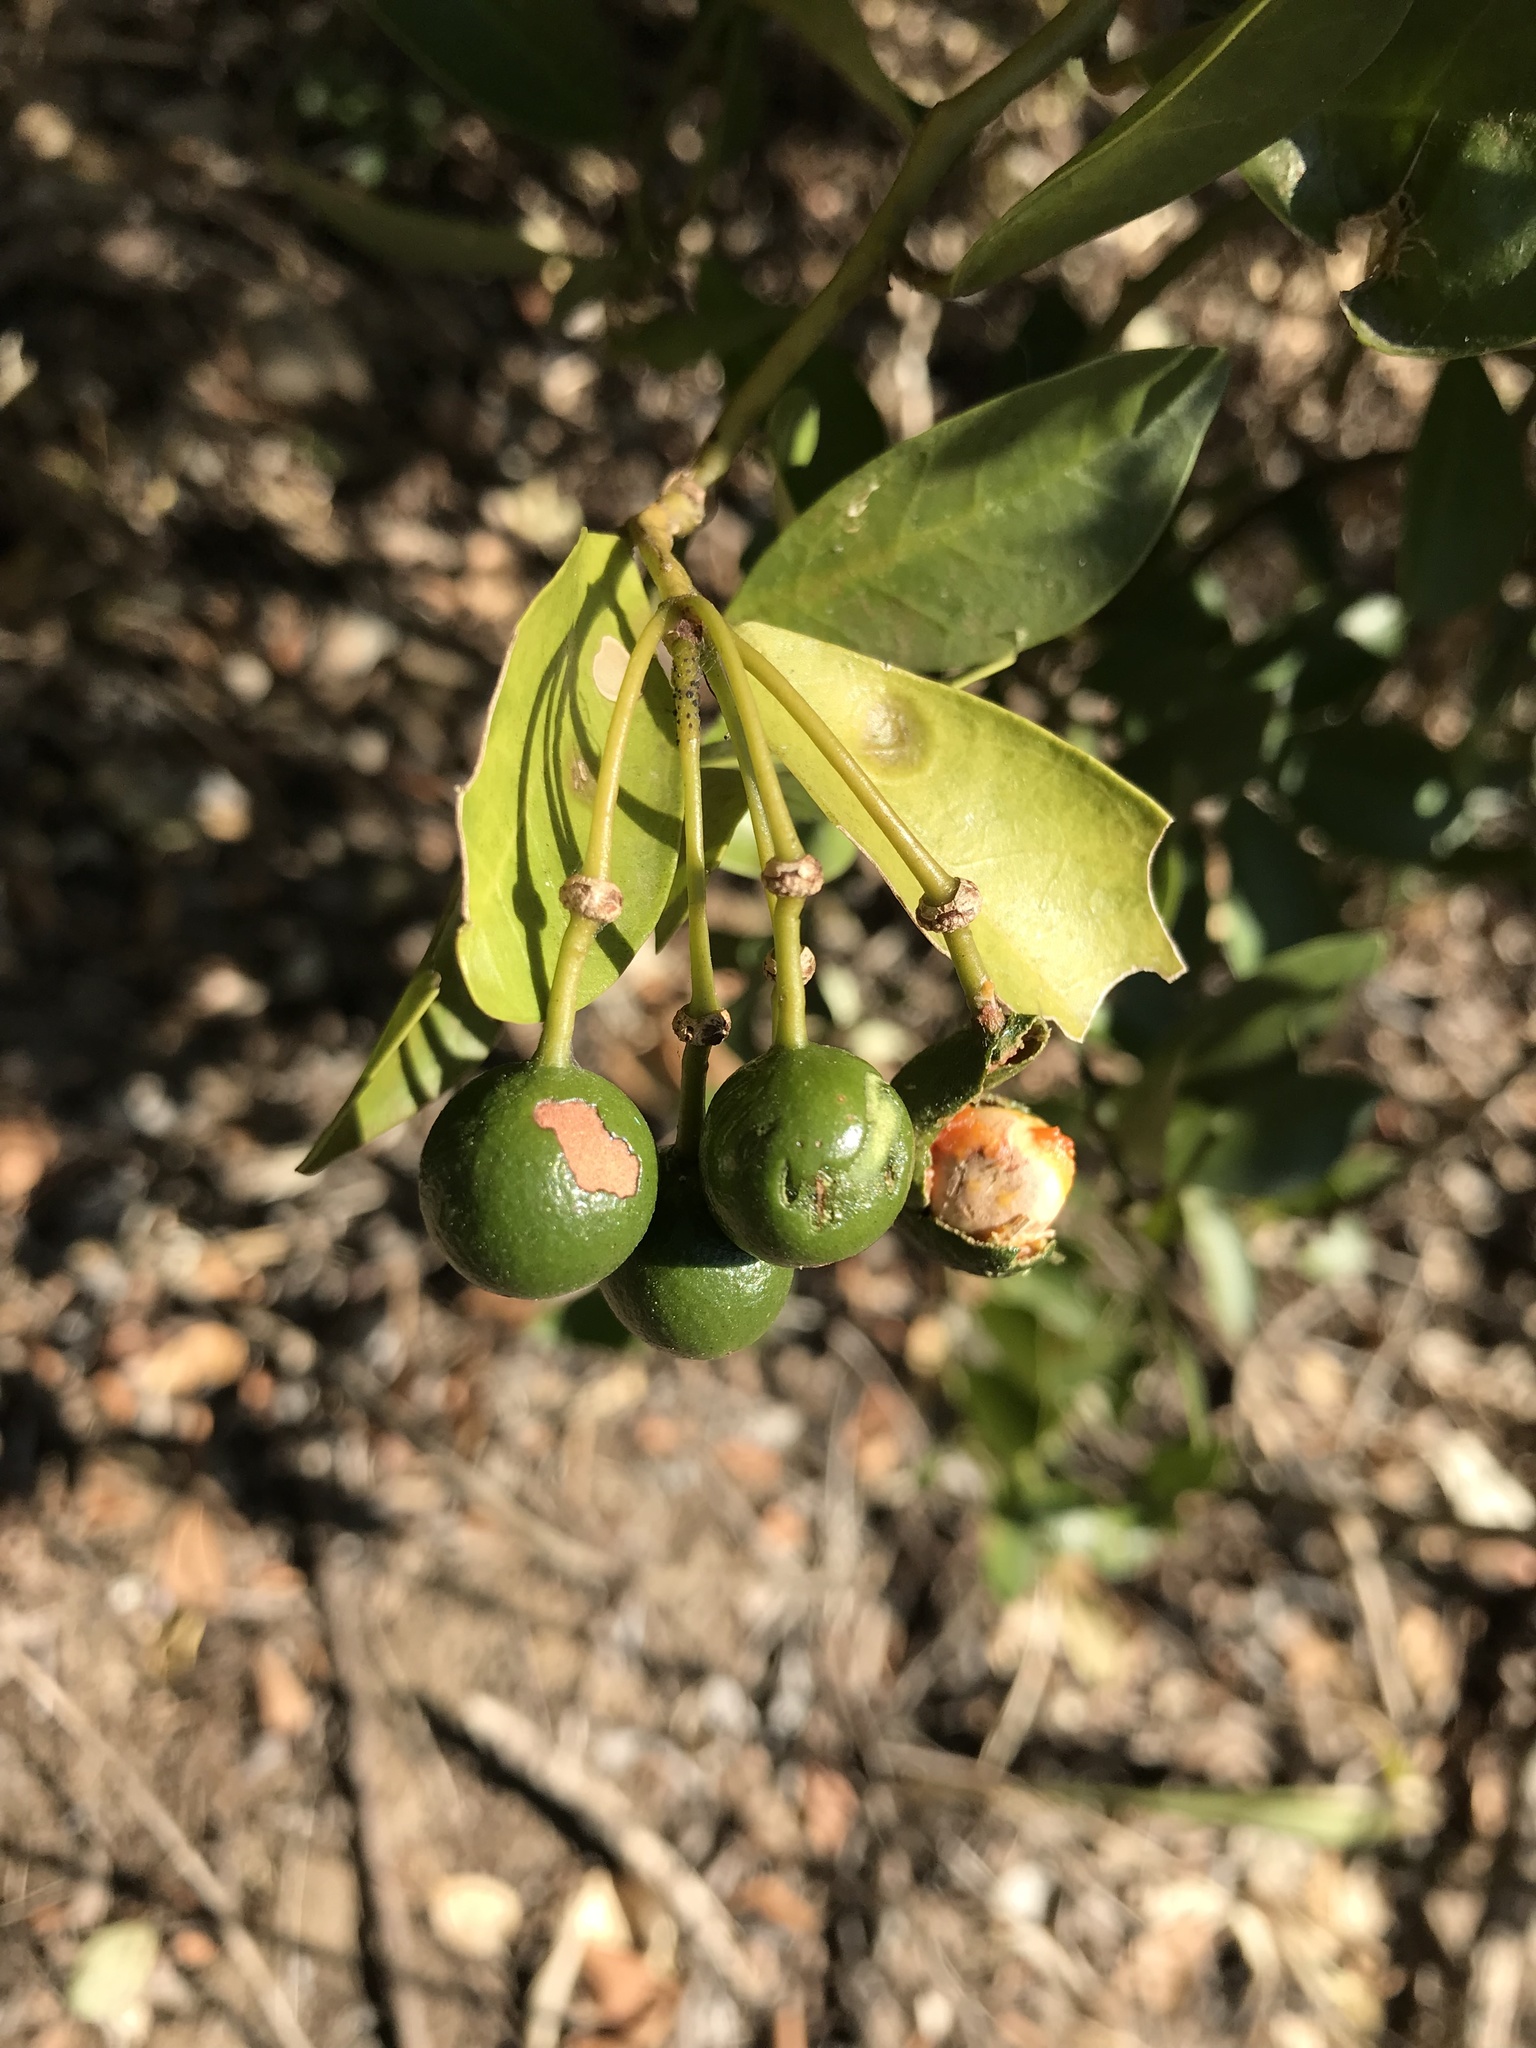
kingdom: Plantae
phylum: Tracheophyta
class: Magnoliopsida
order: Brassicales
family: Capparaceae
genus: Capparis
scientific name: Capparis sepiaria
